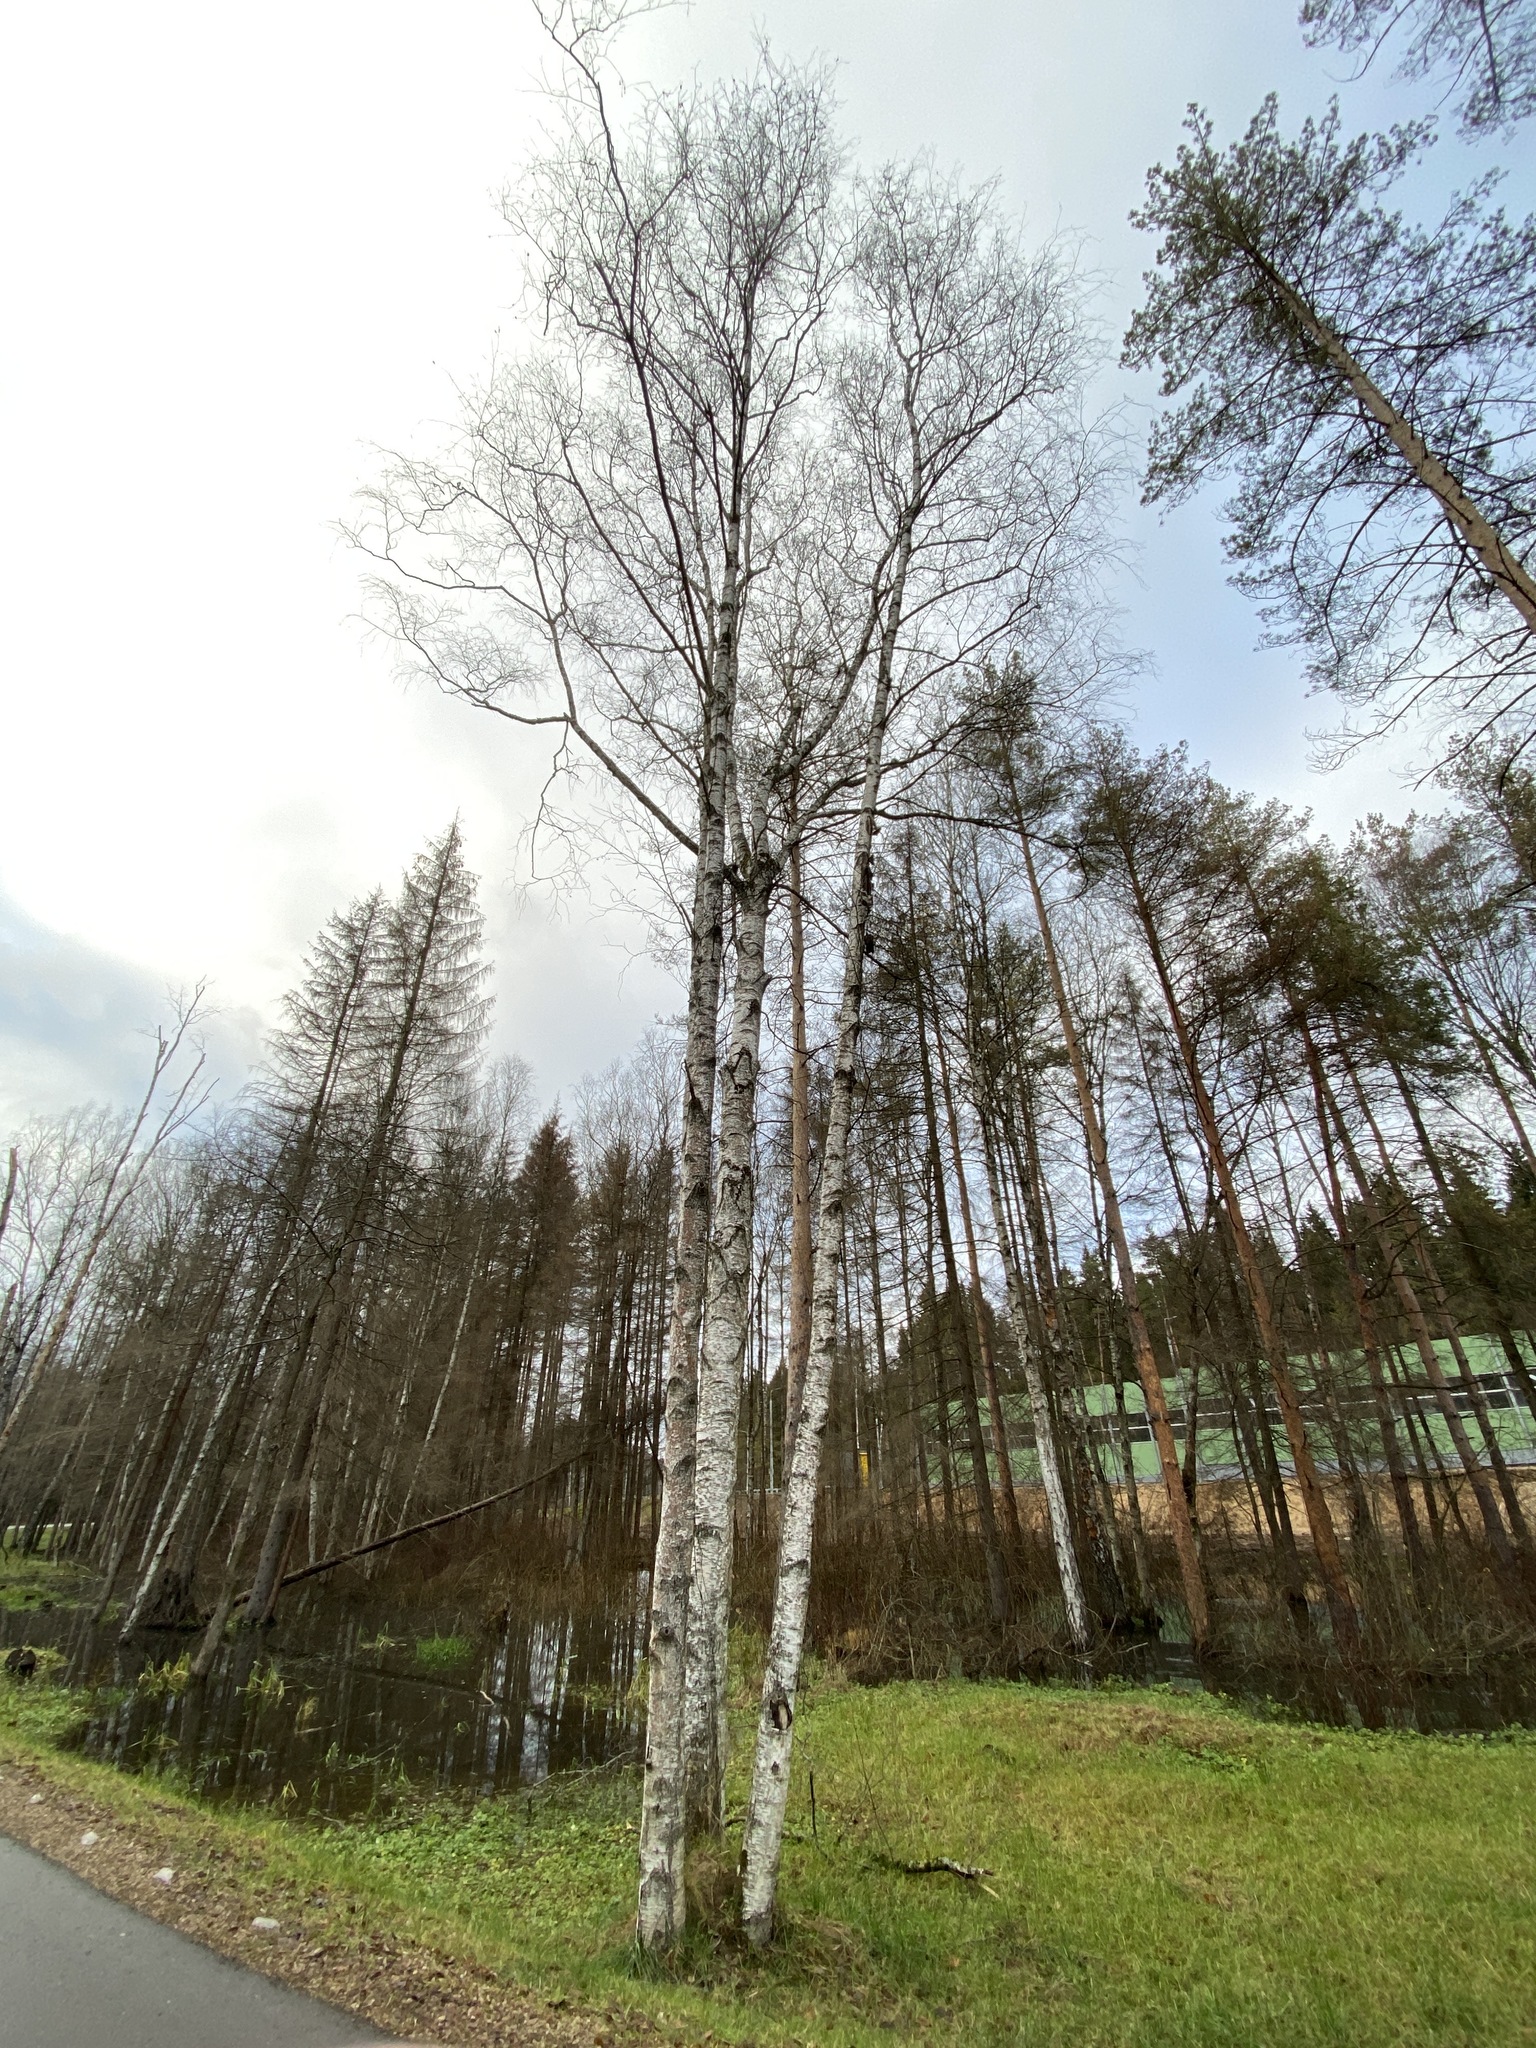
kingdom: Plantae
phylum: Tracheophyta
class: Magnoliopsida
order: Fagales
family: Betulaceae
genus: Betula
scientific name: Betula pubescens
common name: Downy birch
